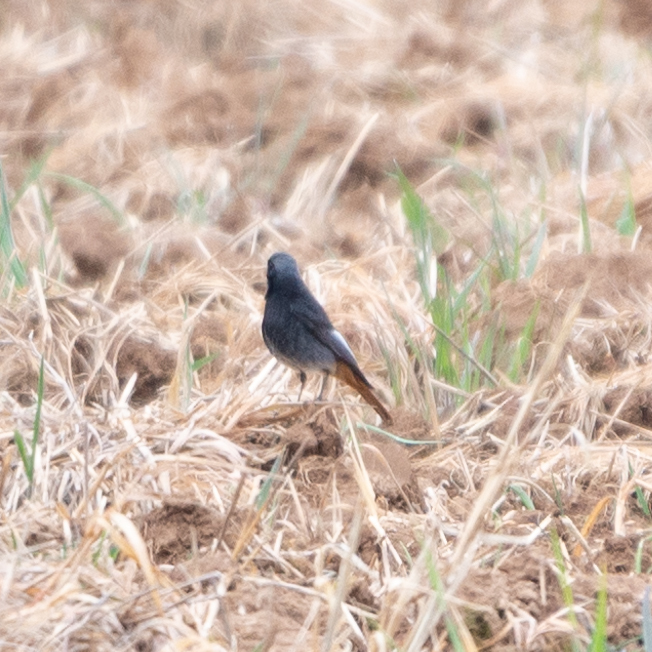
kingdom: Animalia
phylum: Chordata
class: Aves
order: Passeriformes
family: Muscicapidae
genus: Phoenicurus
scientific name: Phoenicurus ochruros
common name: Black redstart
